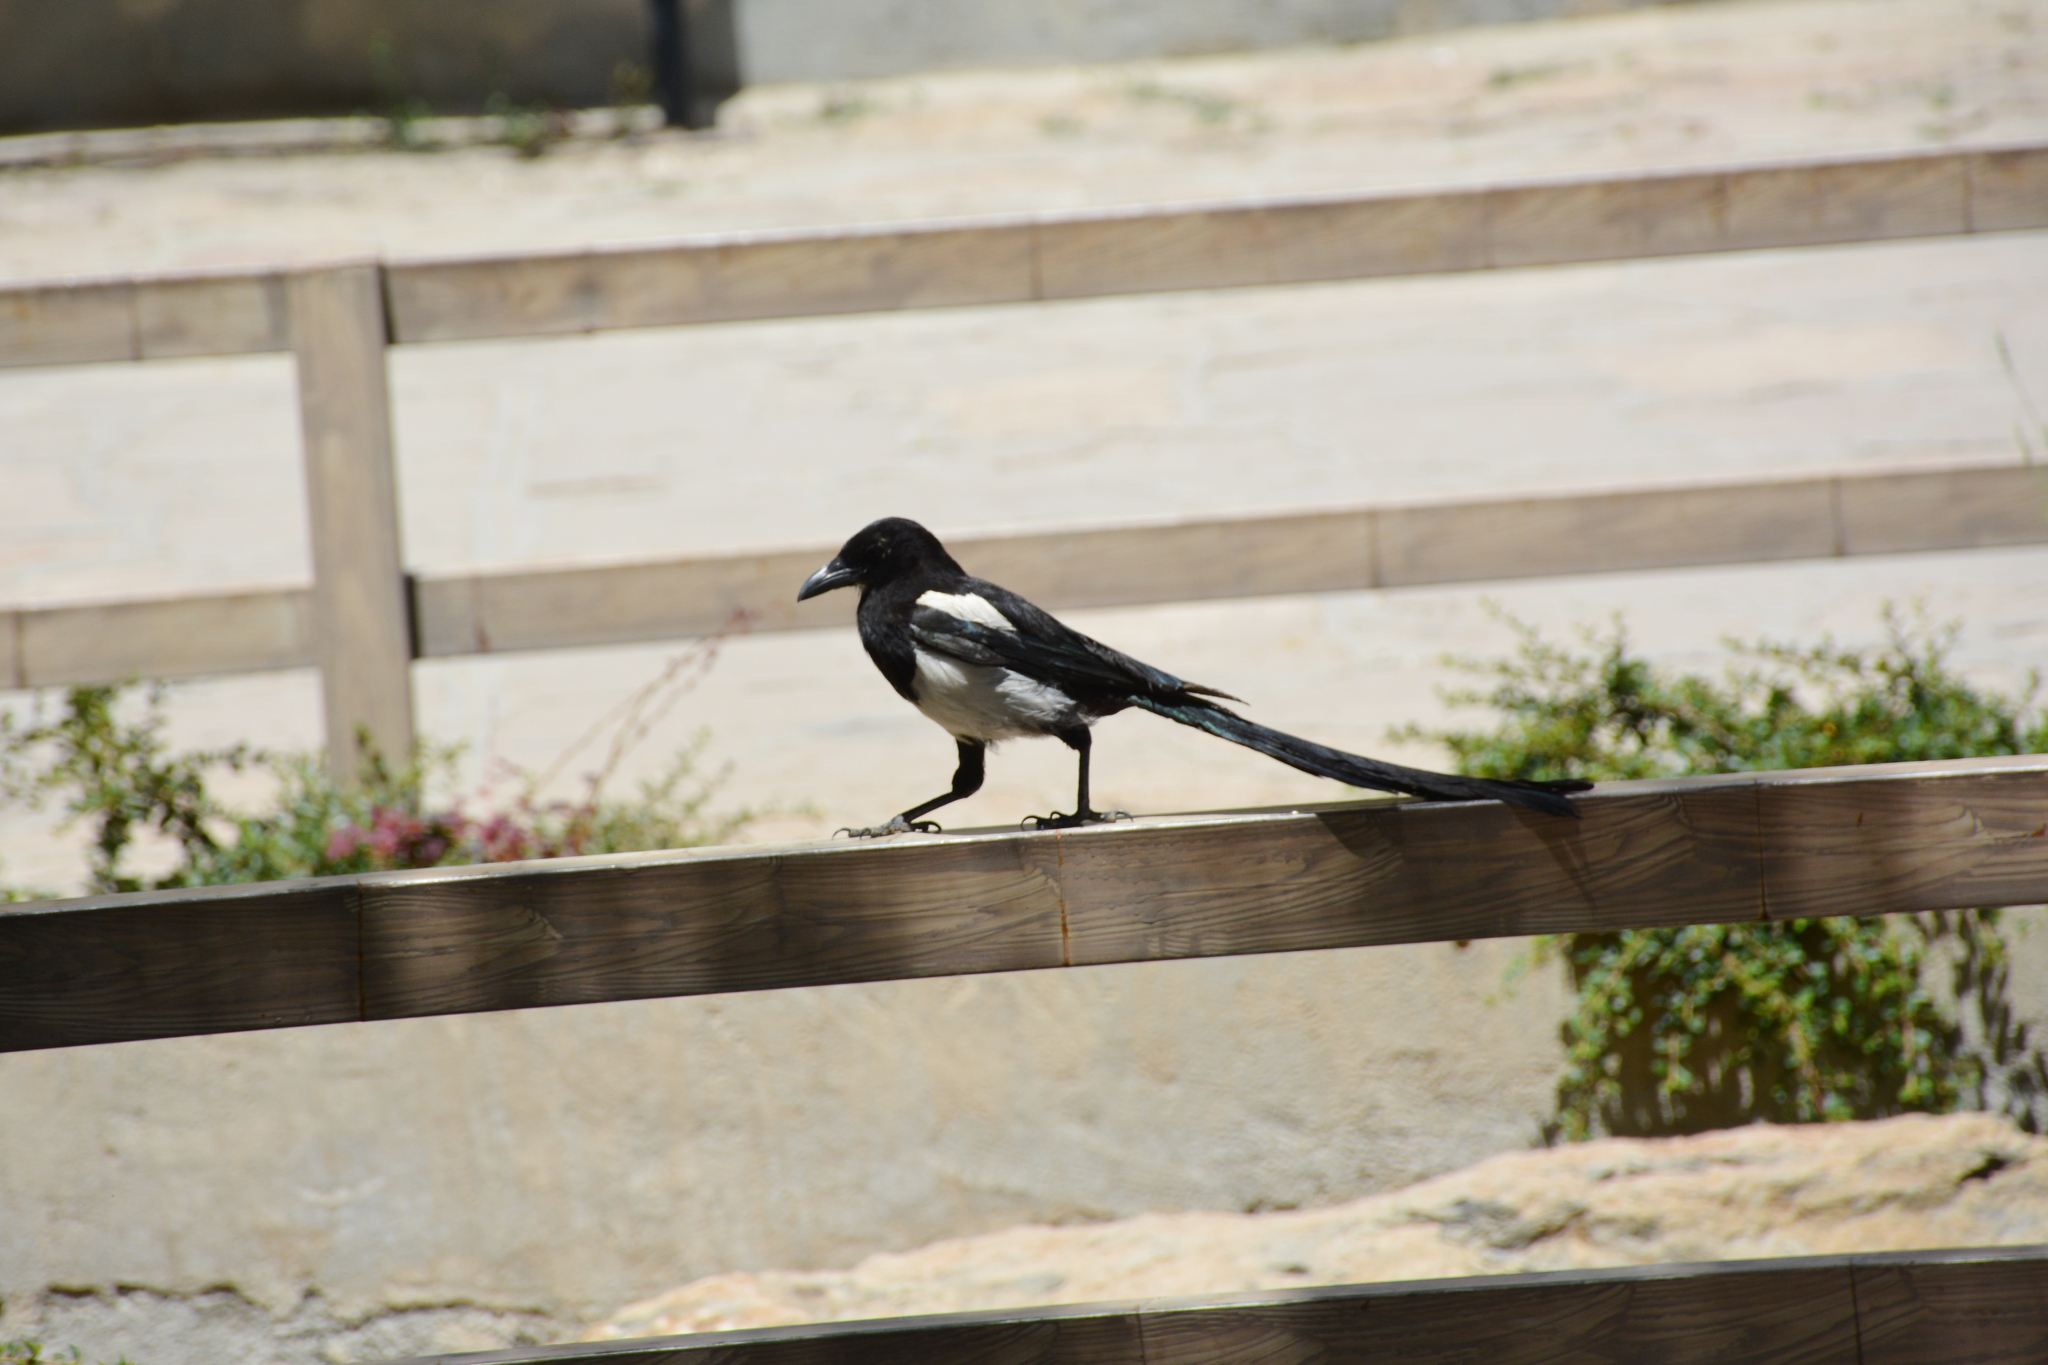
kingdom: Animalia
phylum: Chordata
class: Aves
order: Passeriformes
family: Corvidae
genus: Pica
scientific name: Pica pica
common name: Eurasian magpie
